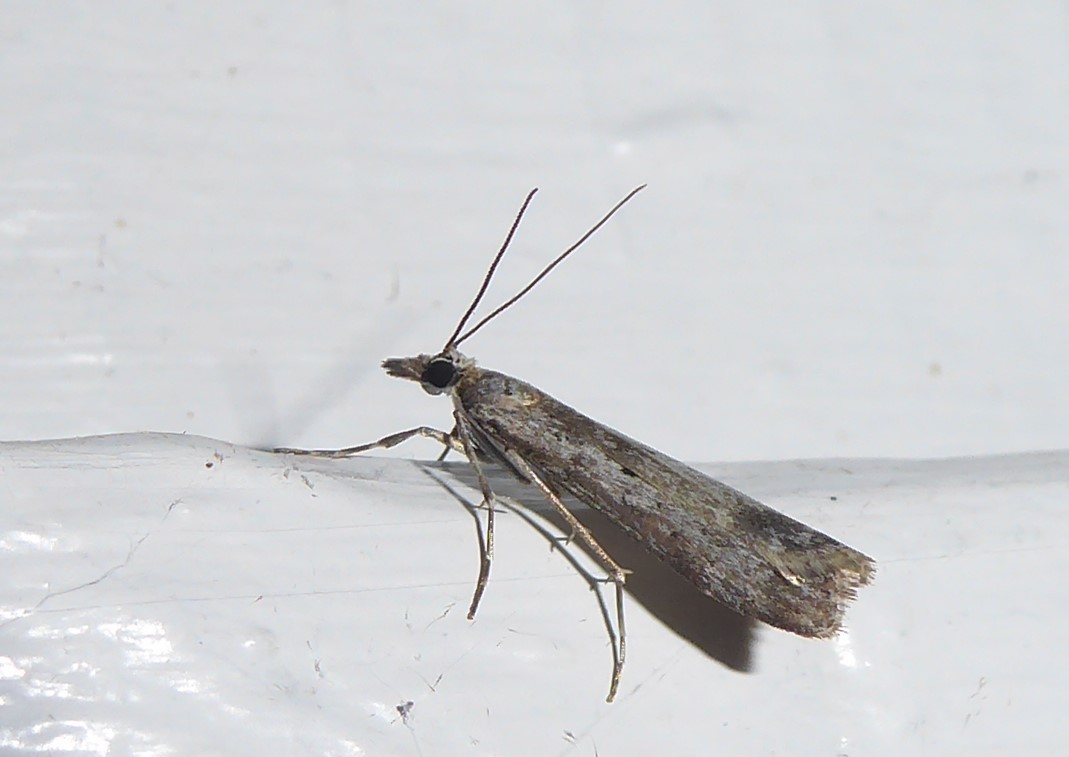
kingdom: Animalia
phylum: Arthropoda
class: Insecta
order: Lepidoptera
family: Crambidae
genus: Eudonia
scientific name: Eudonia leptalea
